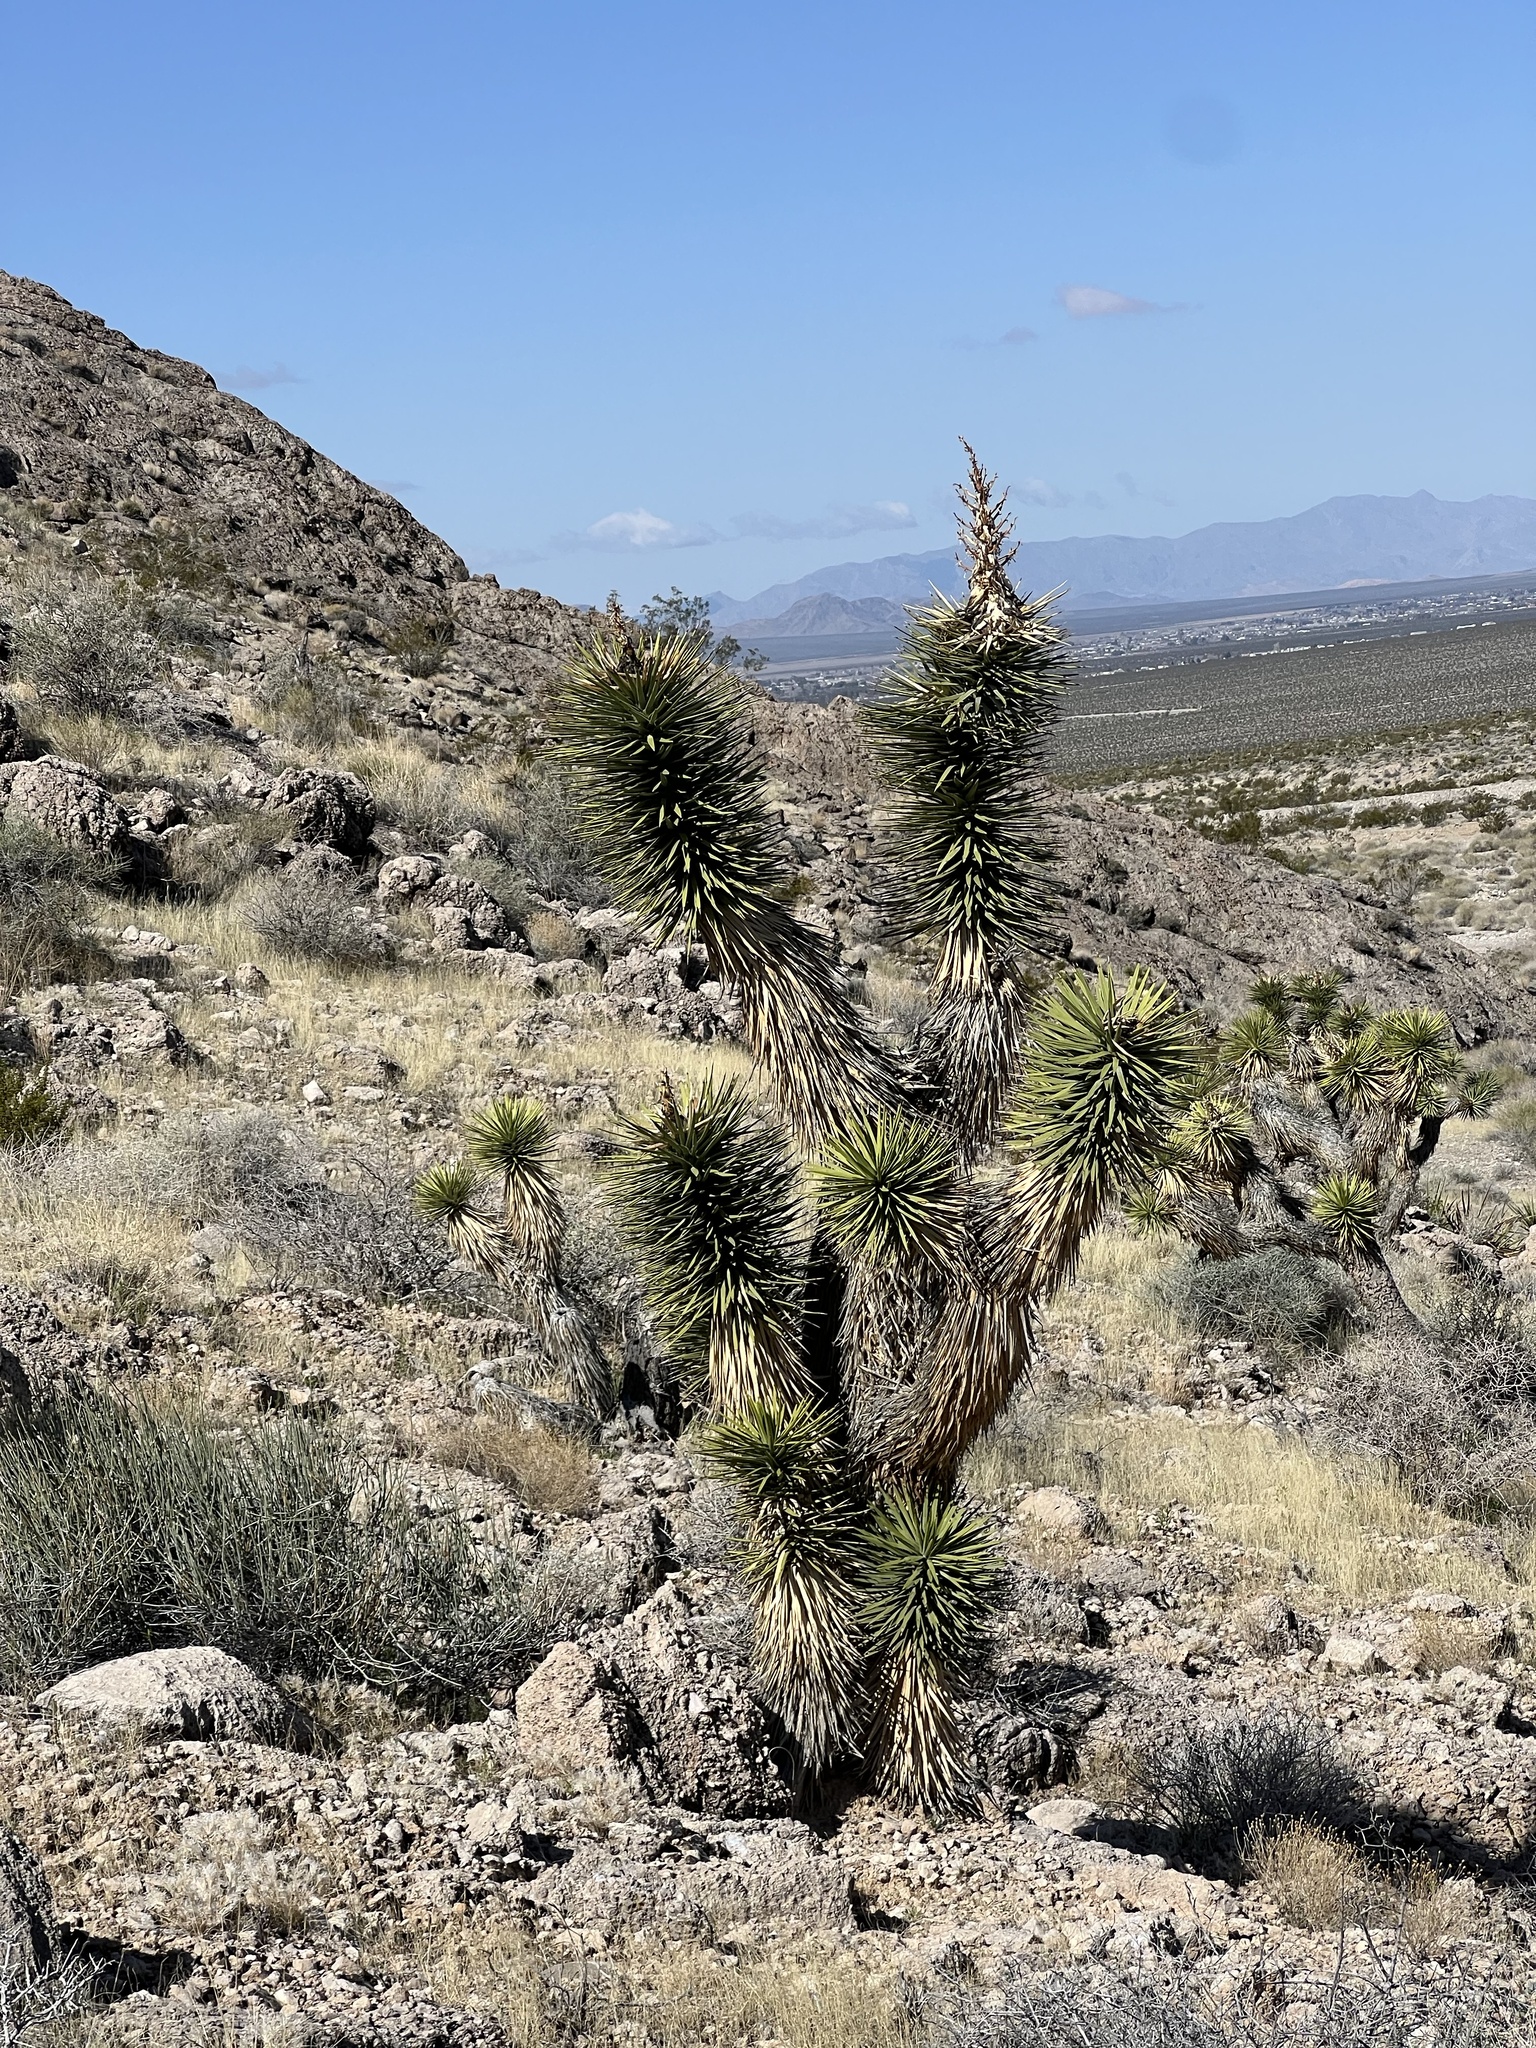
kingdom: Plantae
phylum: Tracheophyta
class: Liliopsida
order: Asparagales
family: Asparagaceae
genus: Yucca
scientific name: Yucca brevifolia
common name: Joshua tree
